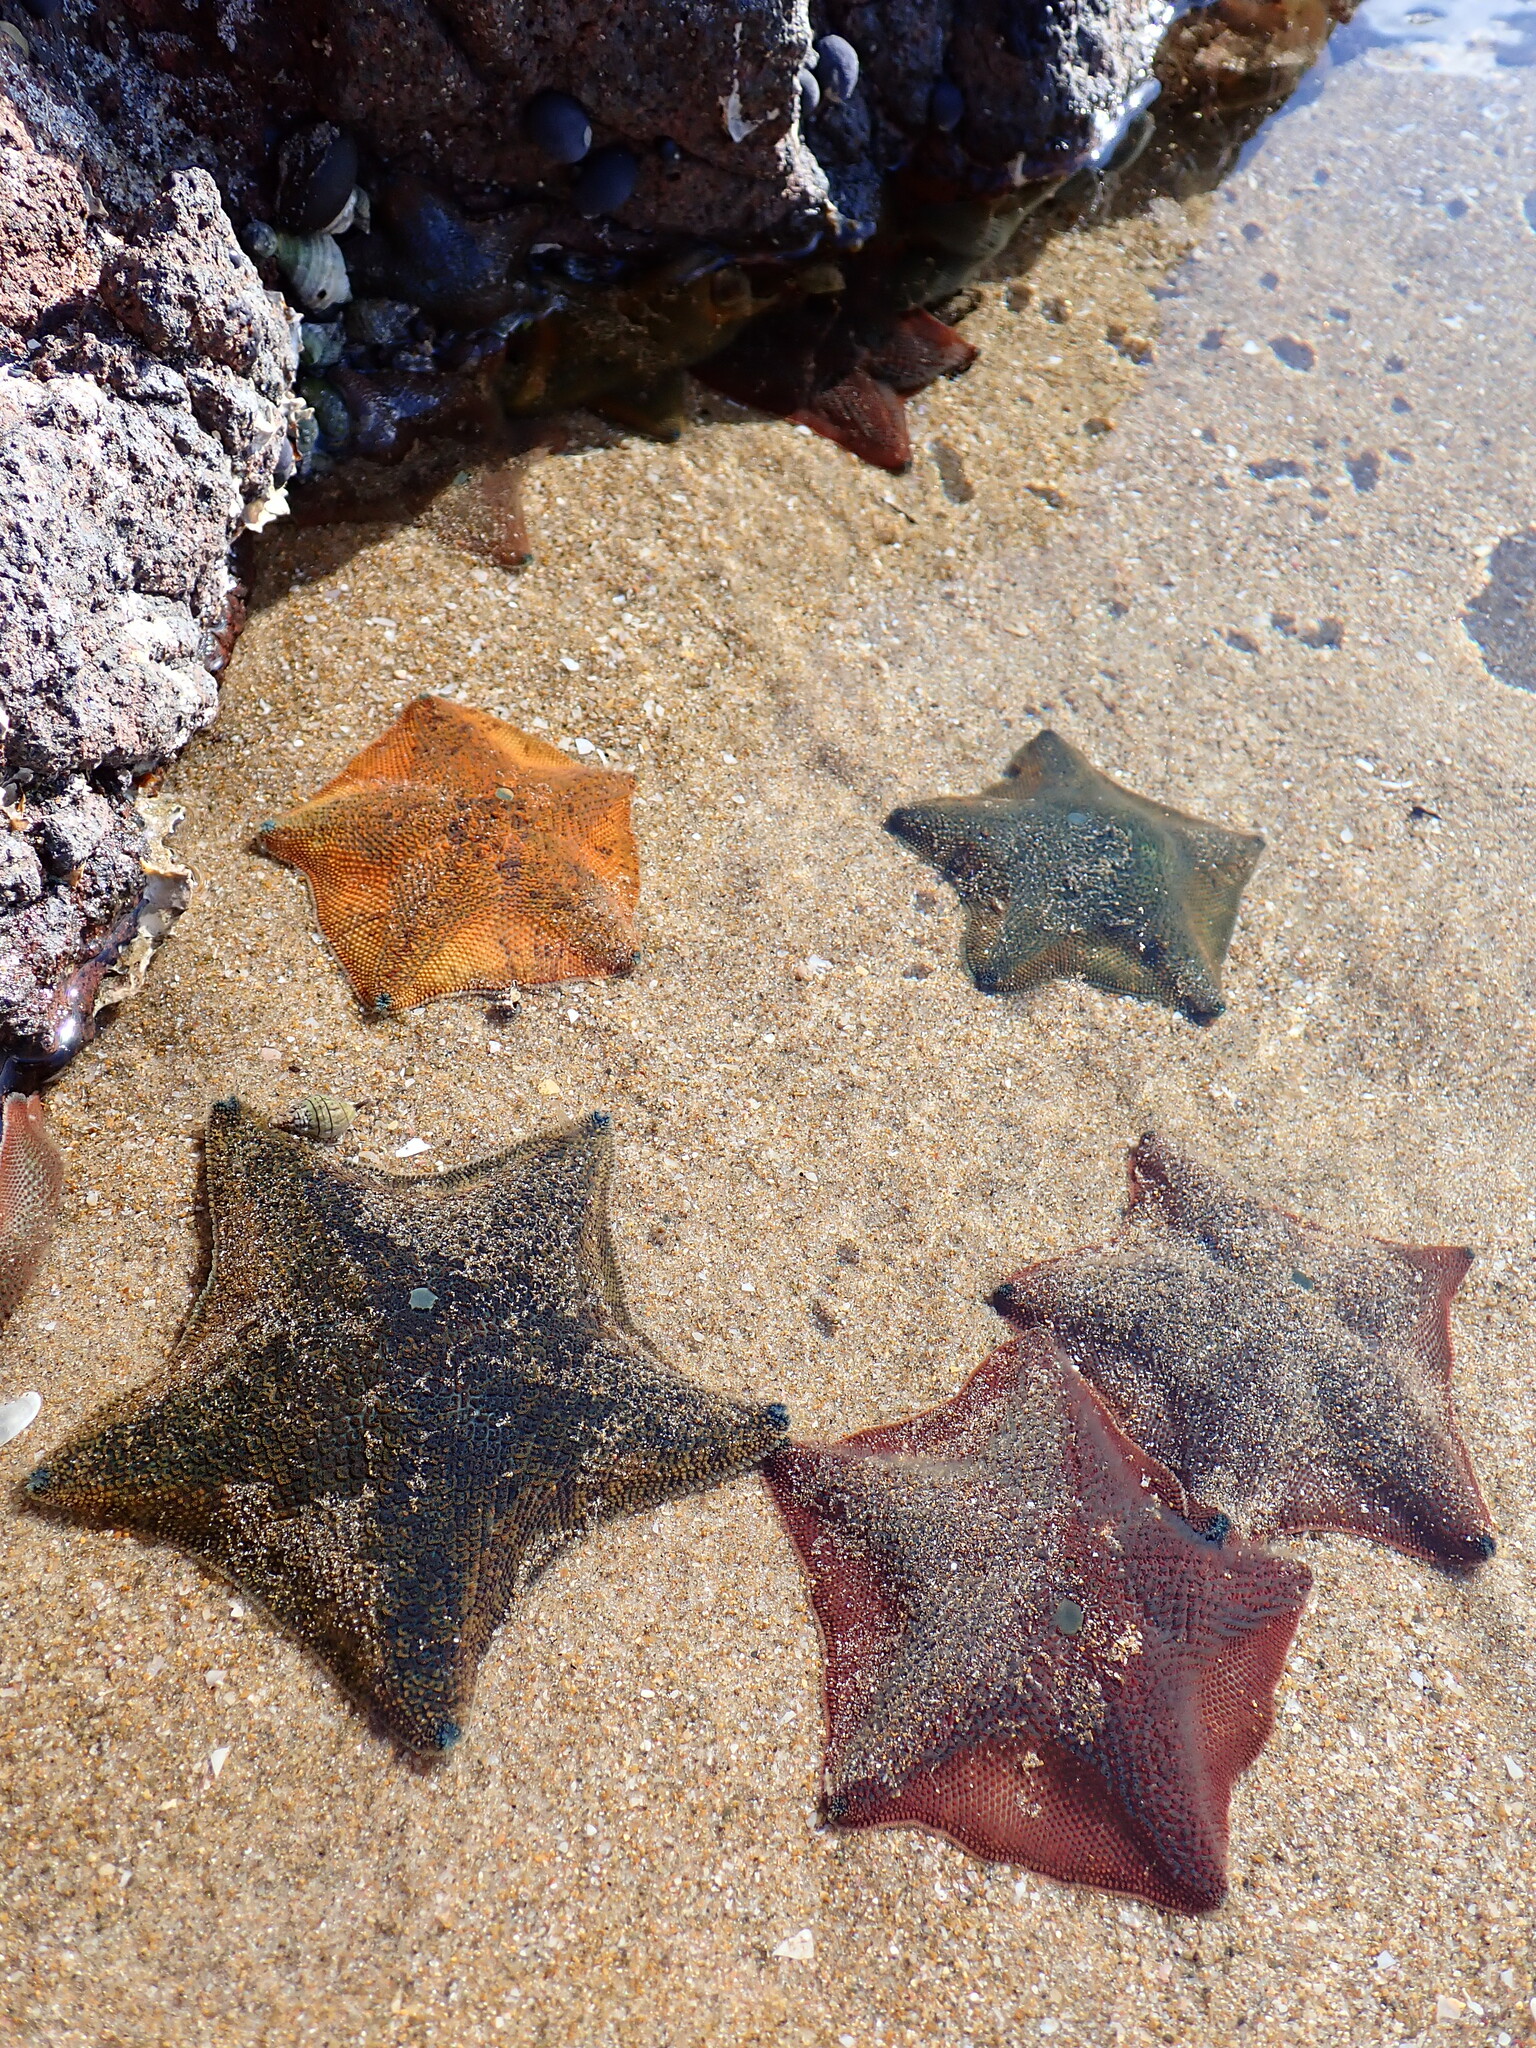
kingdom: Animalia
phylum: Echinodermata
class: Asteroidea
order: Valvatida
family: Asterinidae
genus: Patiriella
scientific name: Patiriella regularis
